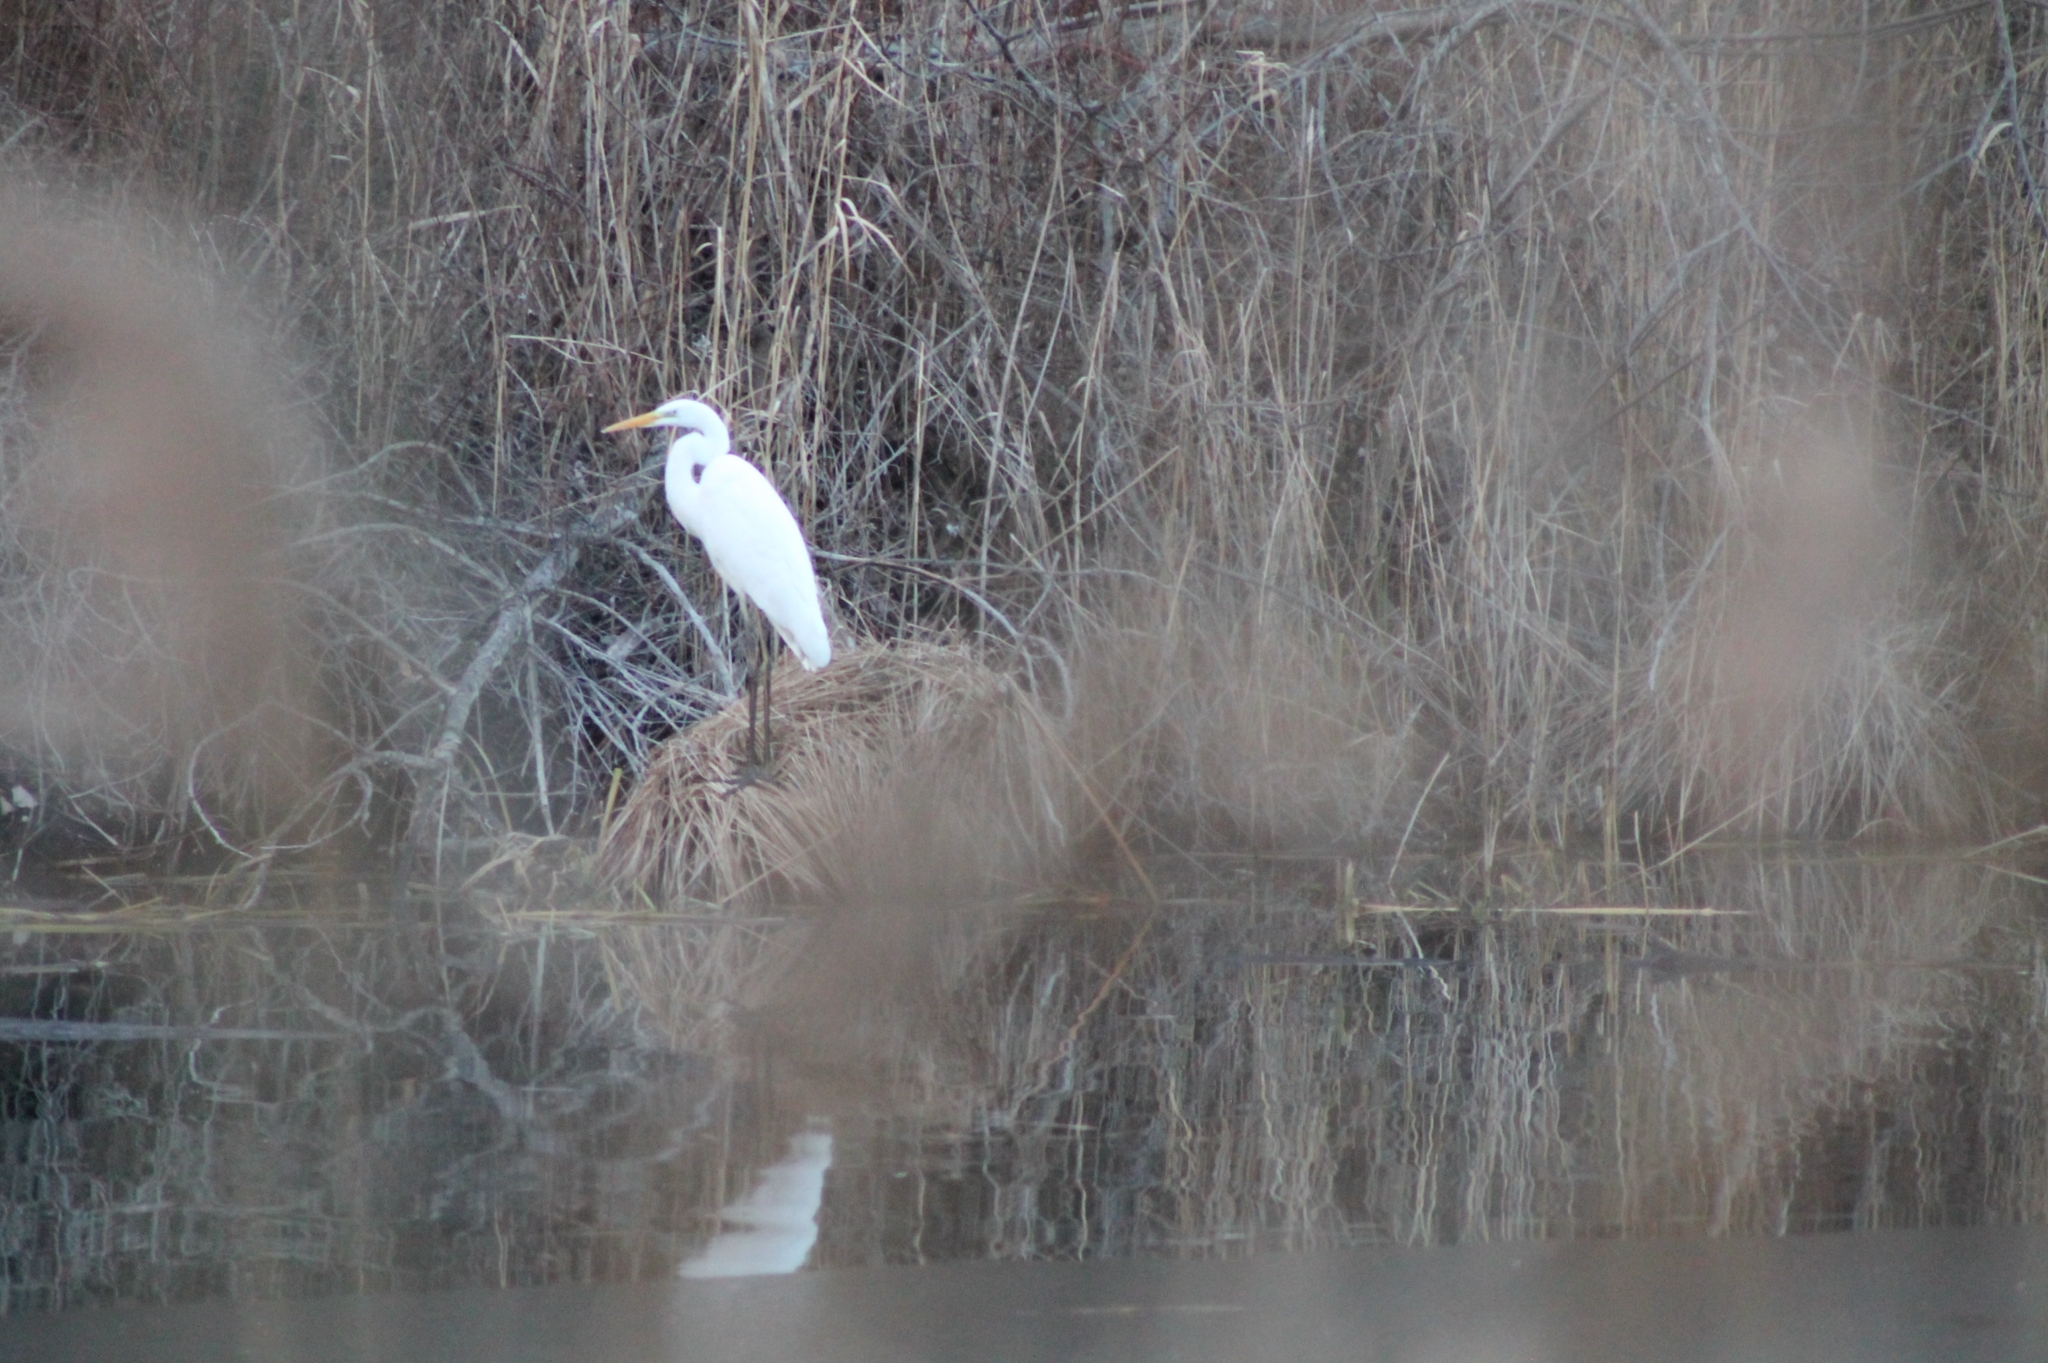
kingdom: Animalia
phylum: Chordata
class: Aves
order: Pelecaniformes
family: Ardeidae
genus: Ardea
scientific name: Ardea alba
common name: Great egret
